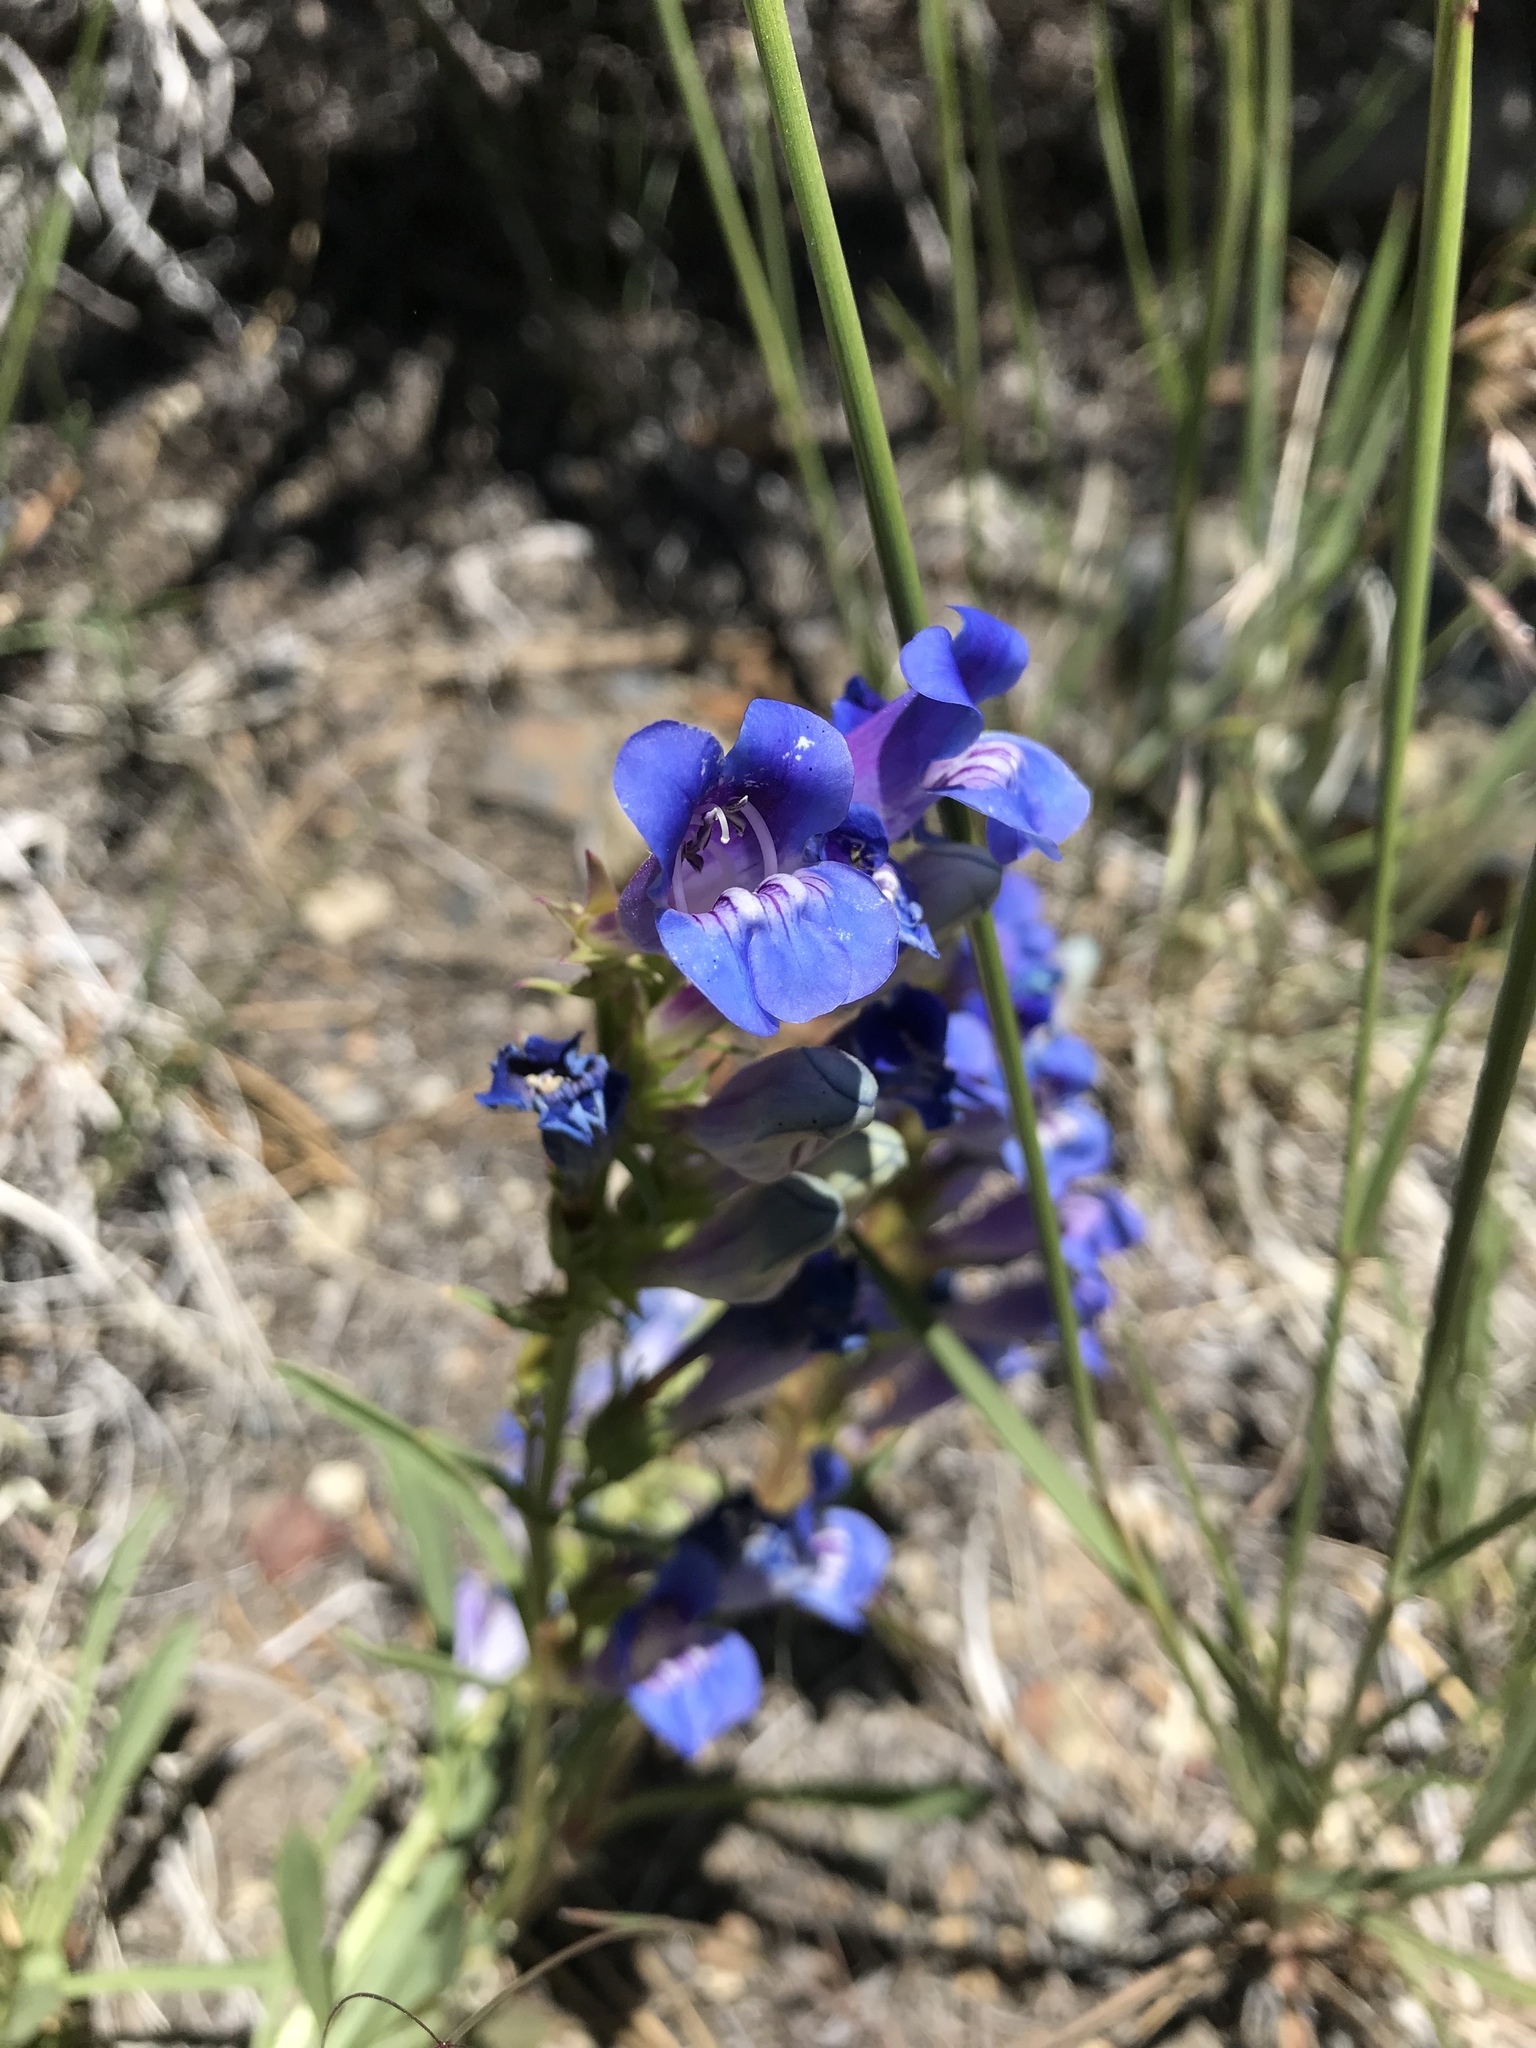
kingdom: Plantae
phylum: Tracheophyta
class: Magnoliopsida
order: Lamiales
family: Plantaginaceae
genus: Penstemon
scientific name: Penstemon speciosus
